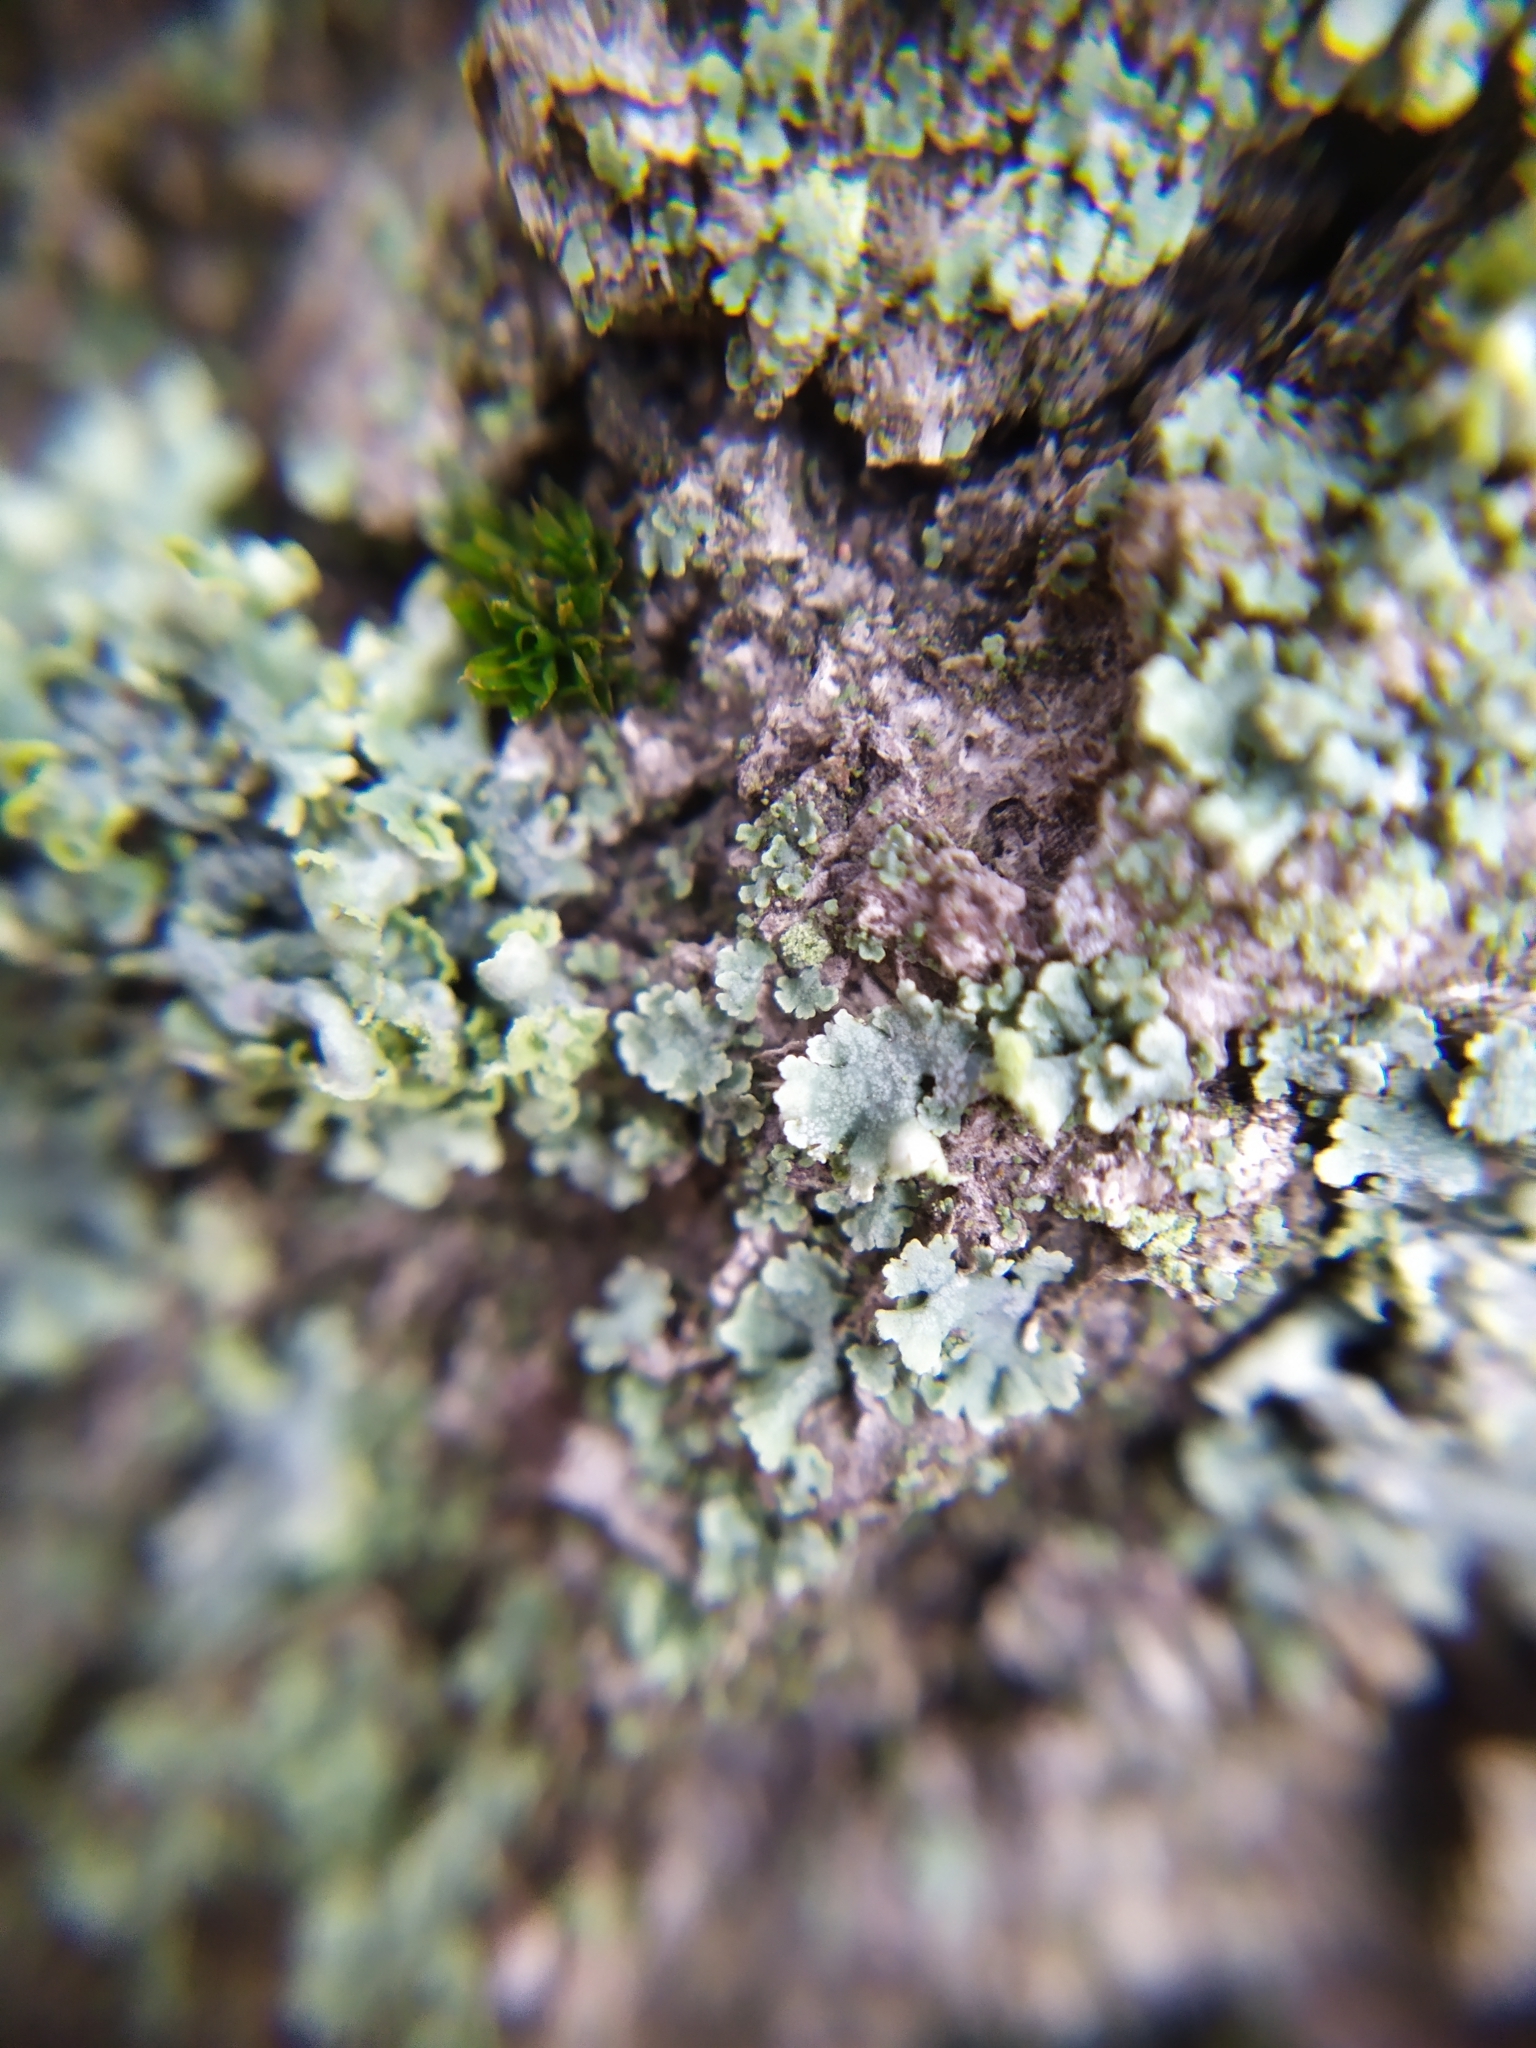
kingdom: Fungi
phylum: Ascomycota
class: Lecanoromycetes
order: Caliciales
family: Physciaceae
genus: Physcia
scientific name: Physcia
